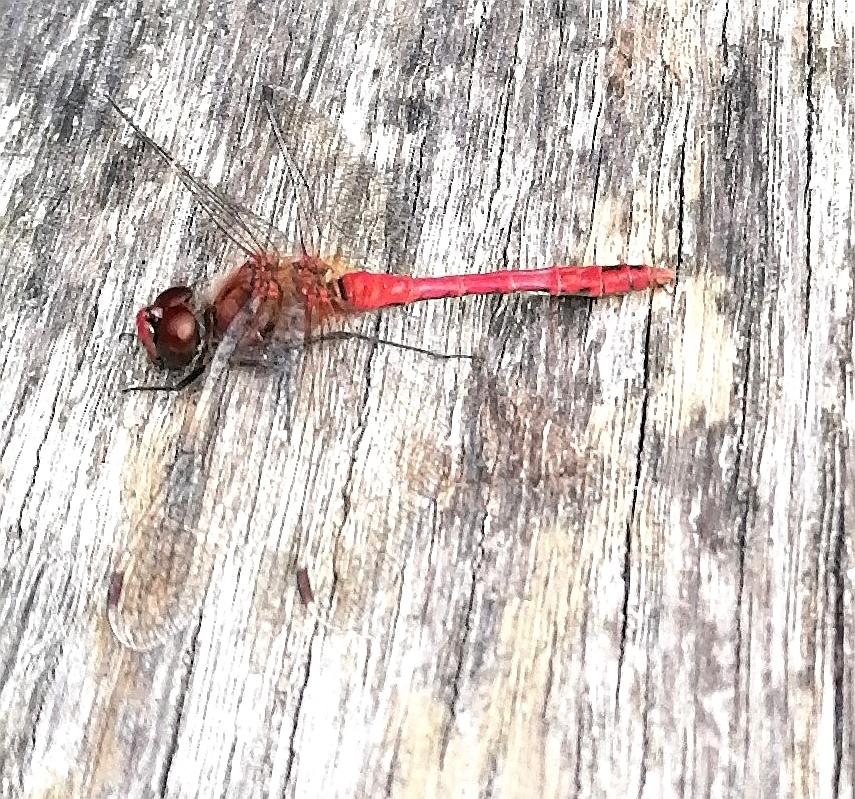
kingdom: Animalia
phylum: Arthropoda
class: Insecta
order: Odonata
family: Libellulidae
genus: Sympetrum
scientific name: Sympetrum sanguineum
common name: Ruddy darter
